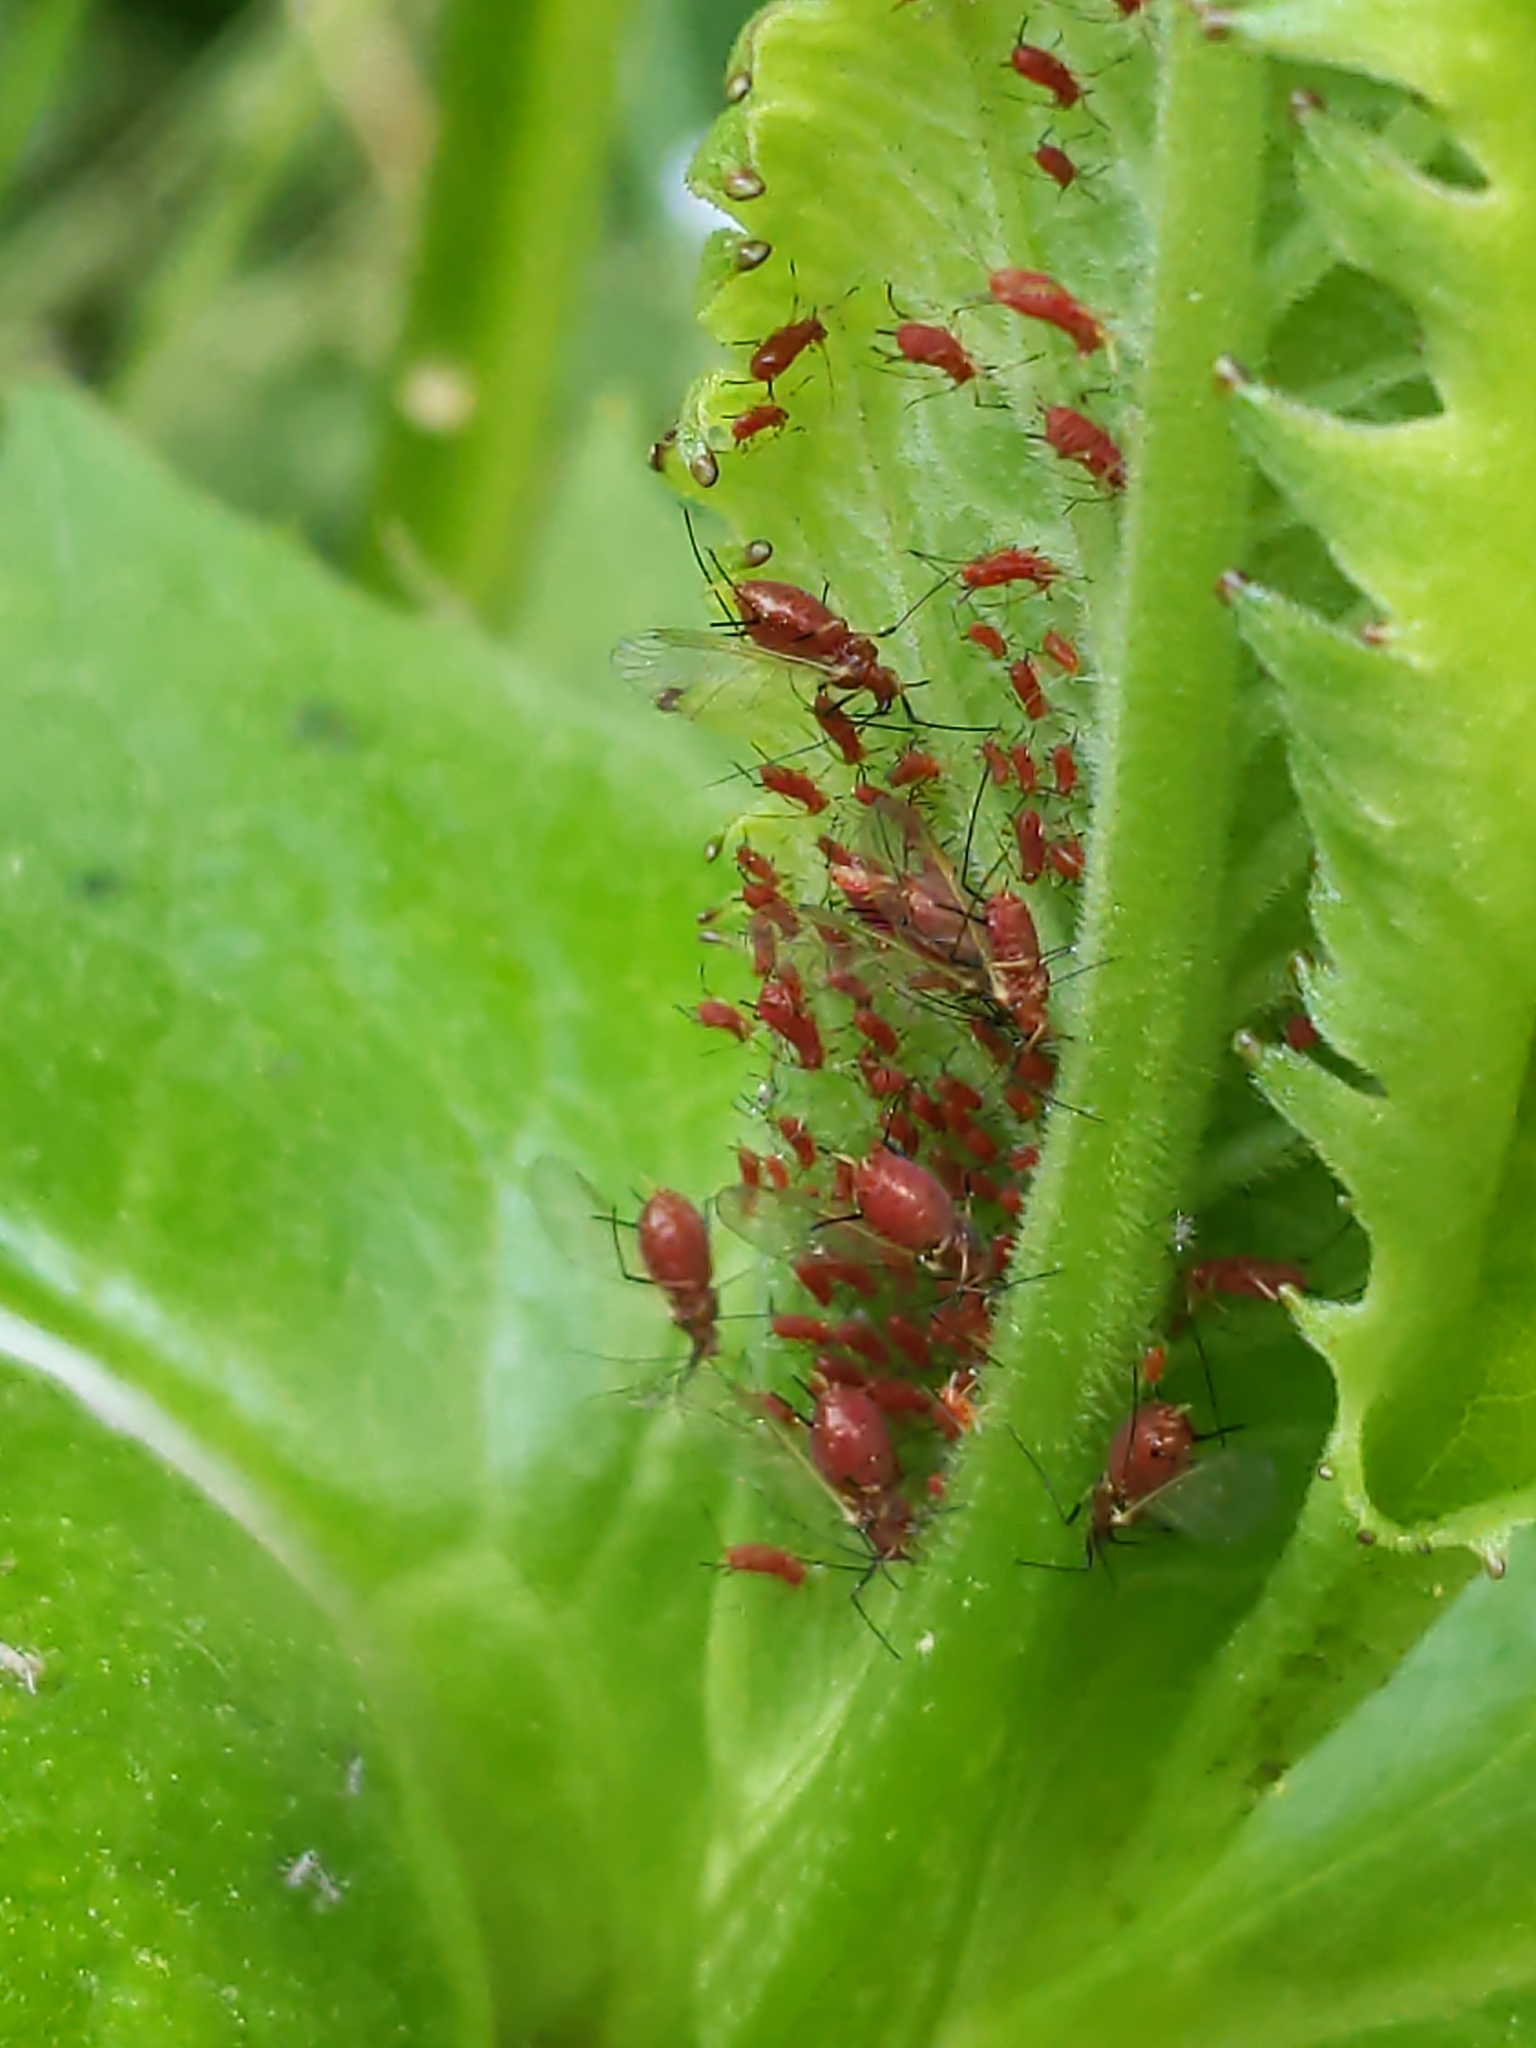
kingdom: Animalia
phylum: Arthropoda
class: Insecta
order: Hemiptera
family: Aphididae
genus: Uroleucon
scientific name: Uroleucon
